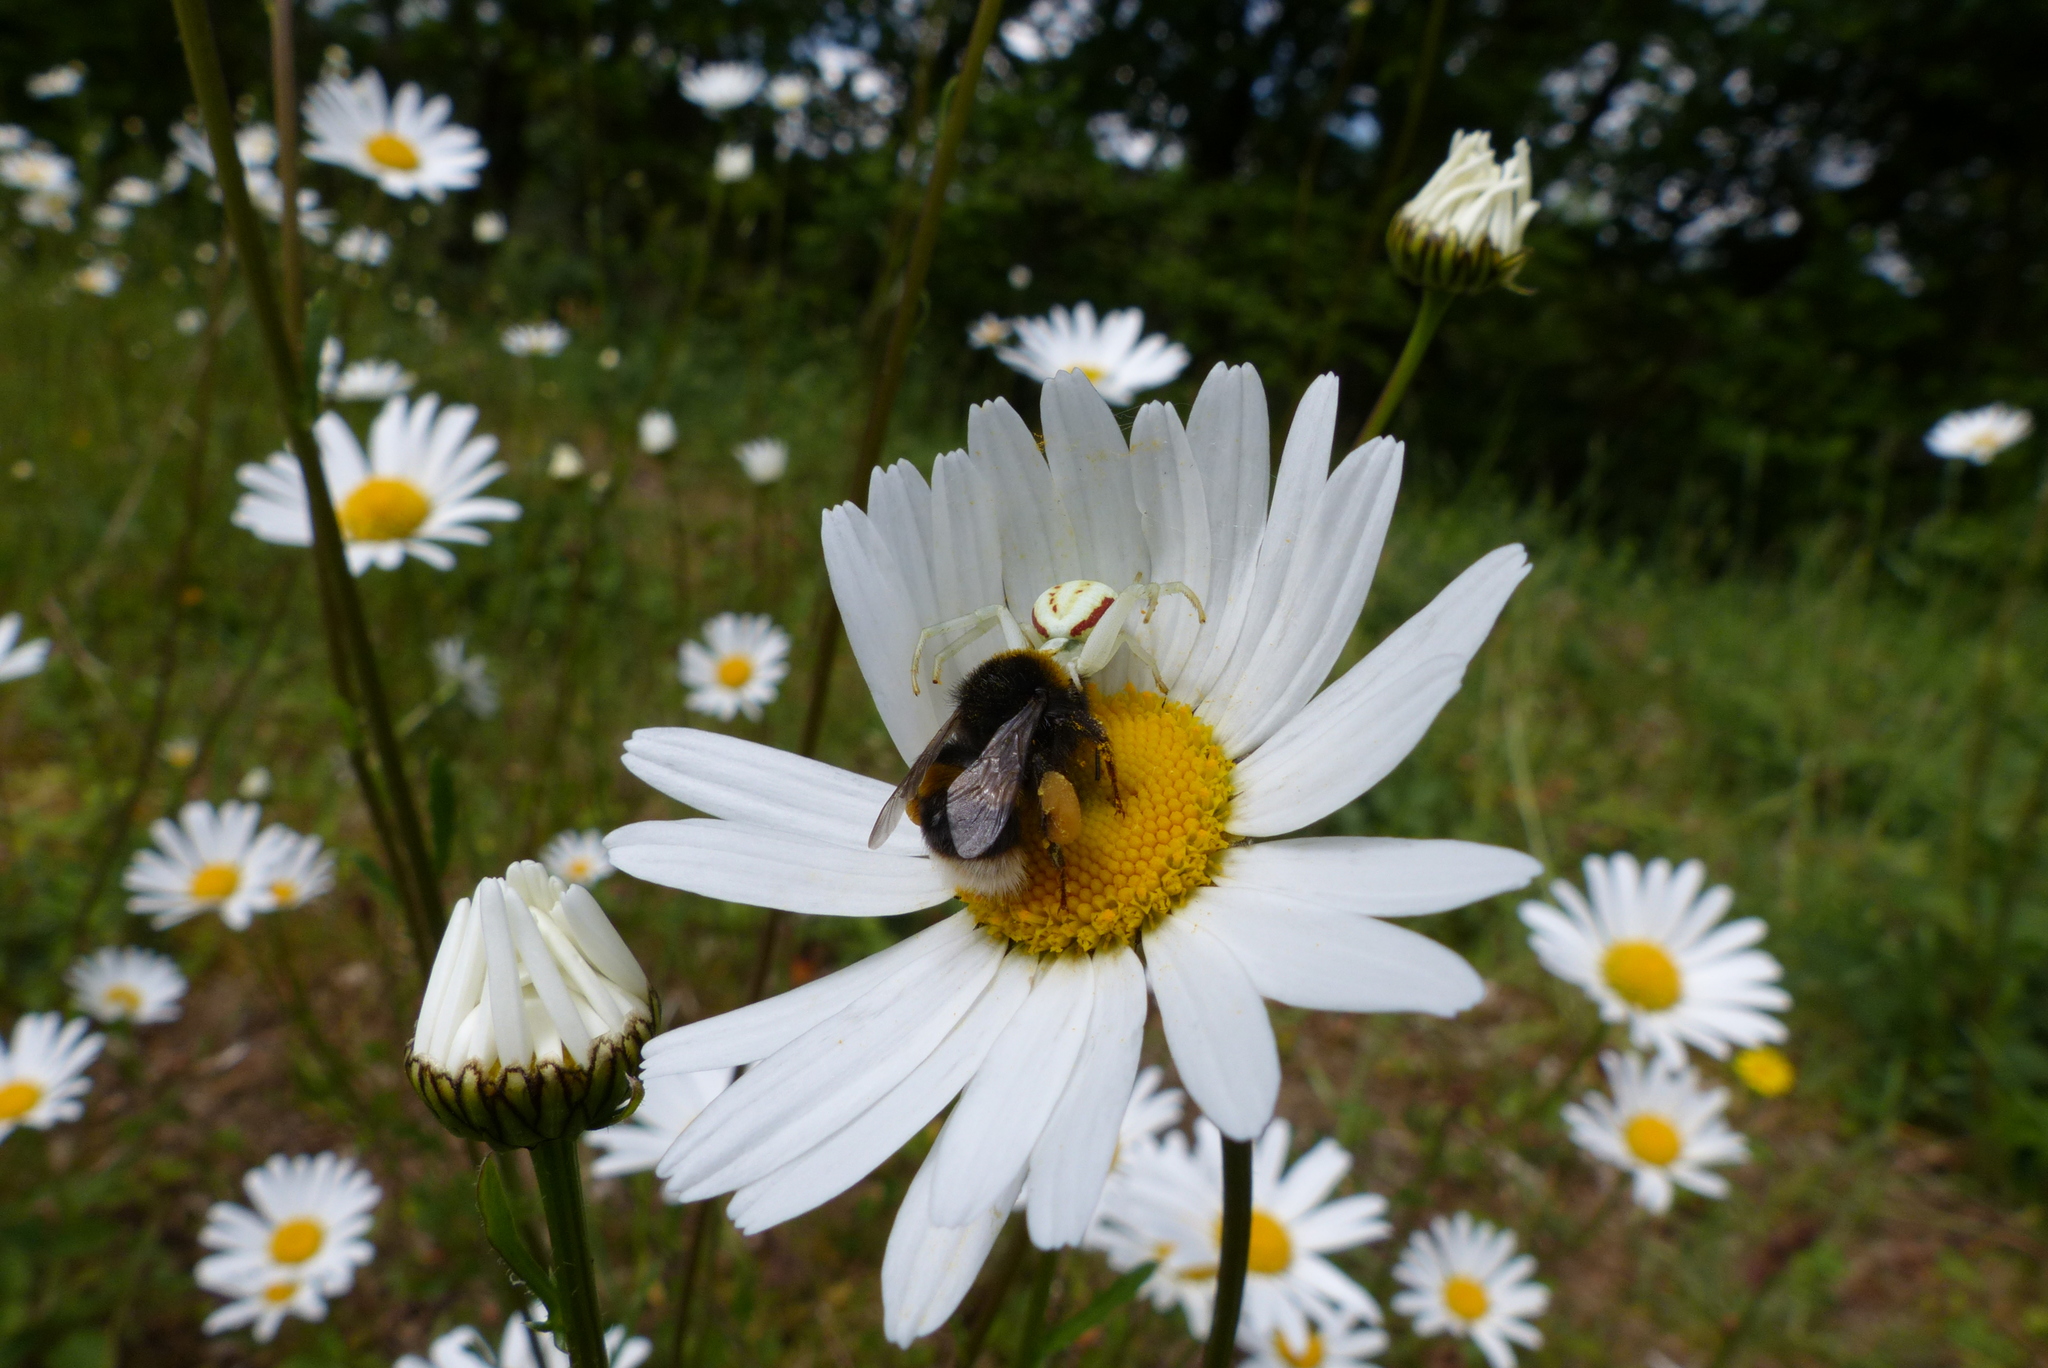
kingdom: Animalia
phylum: Arthropoda
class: Arachnida
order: Araneae
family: Thomisidae
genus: Misumena
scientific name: Misumena vatia
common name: Goldenrod crab spider
